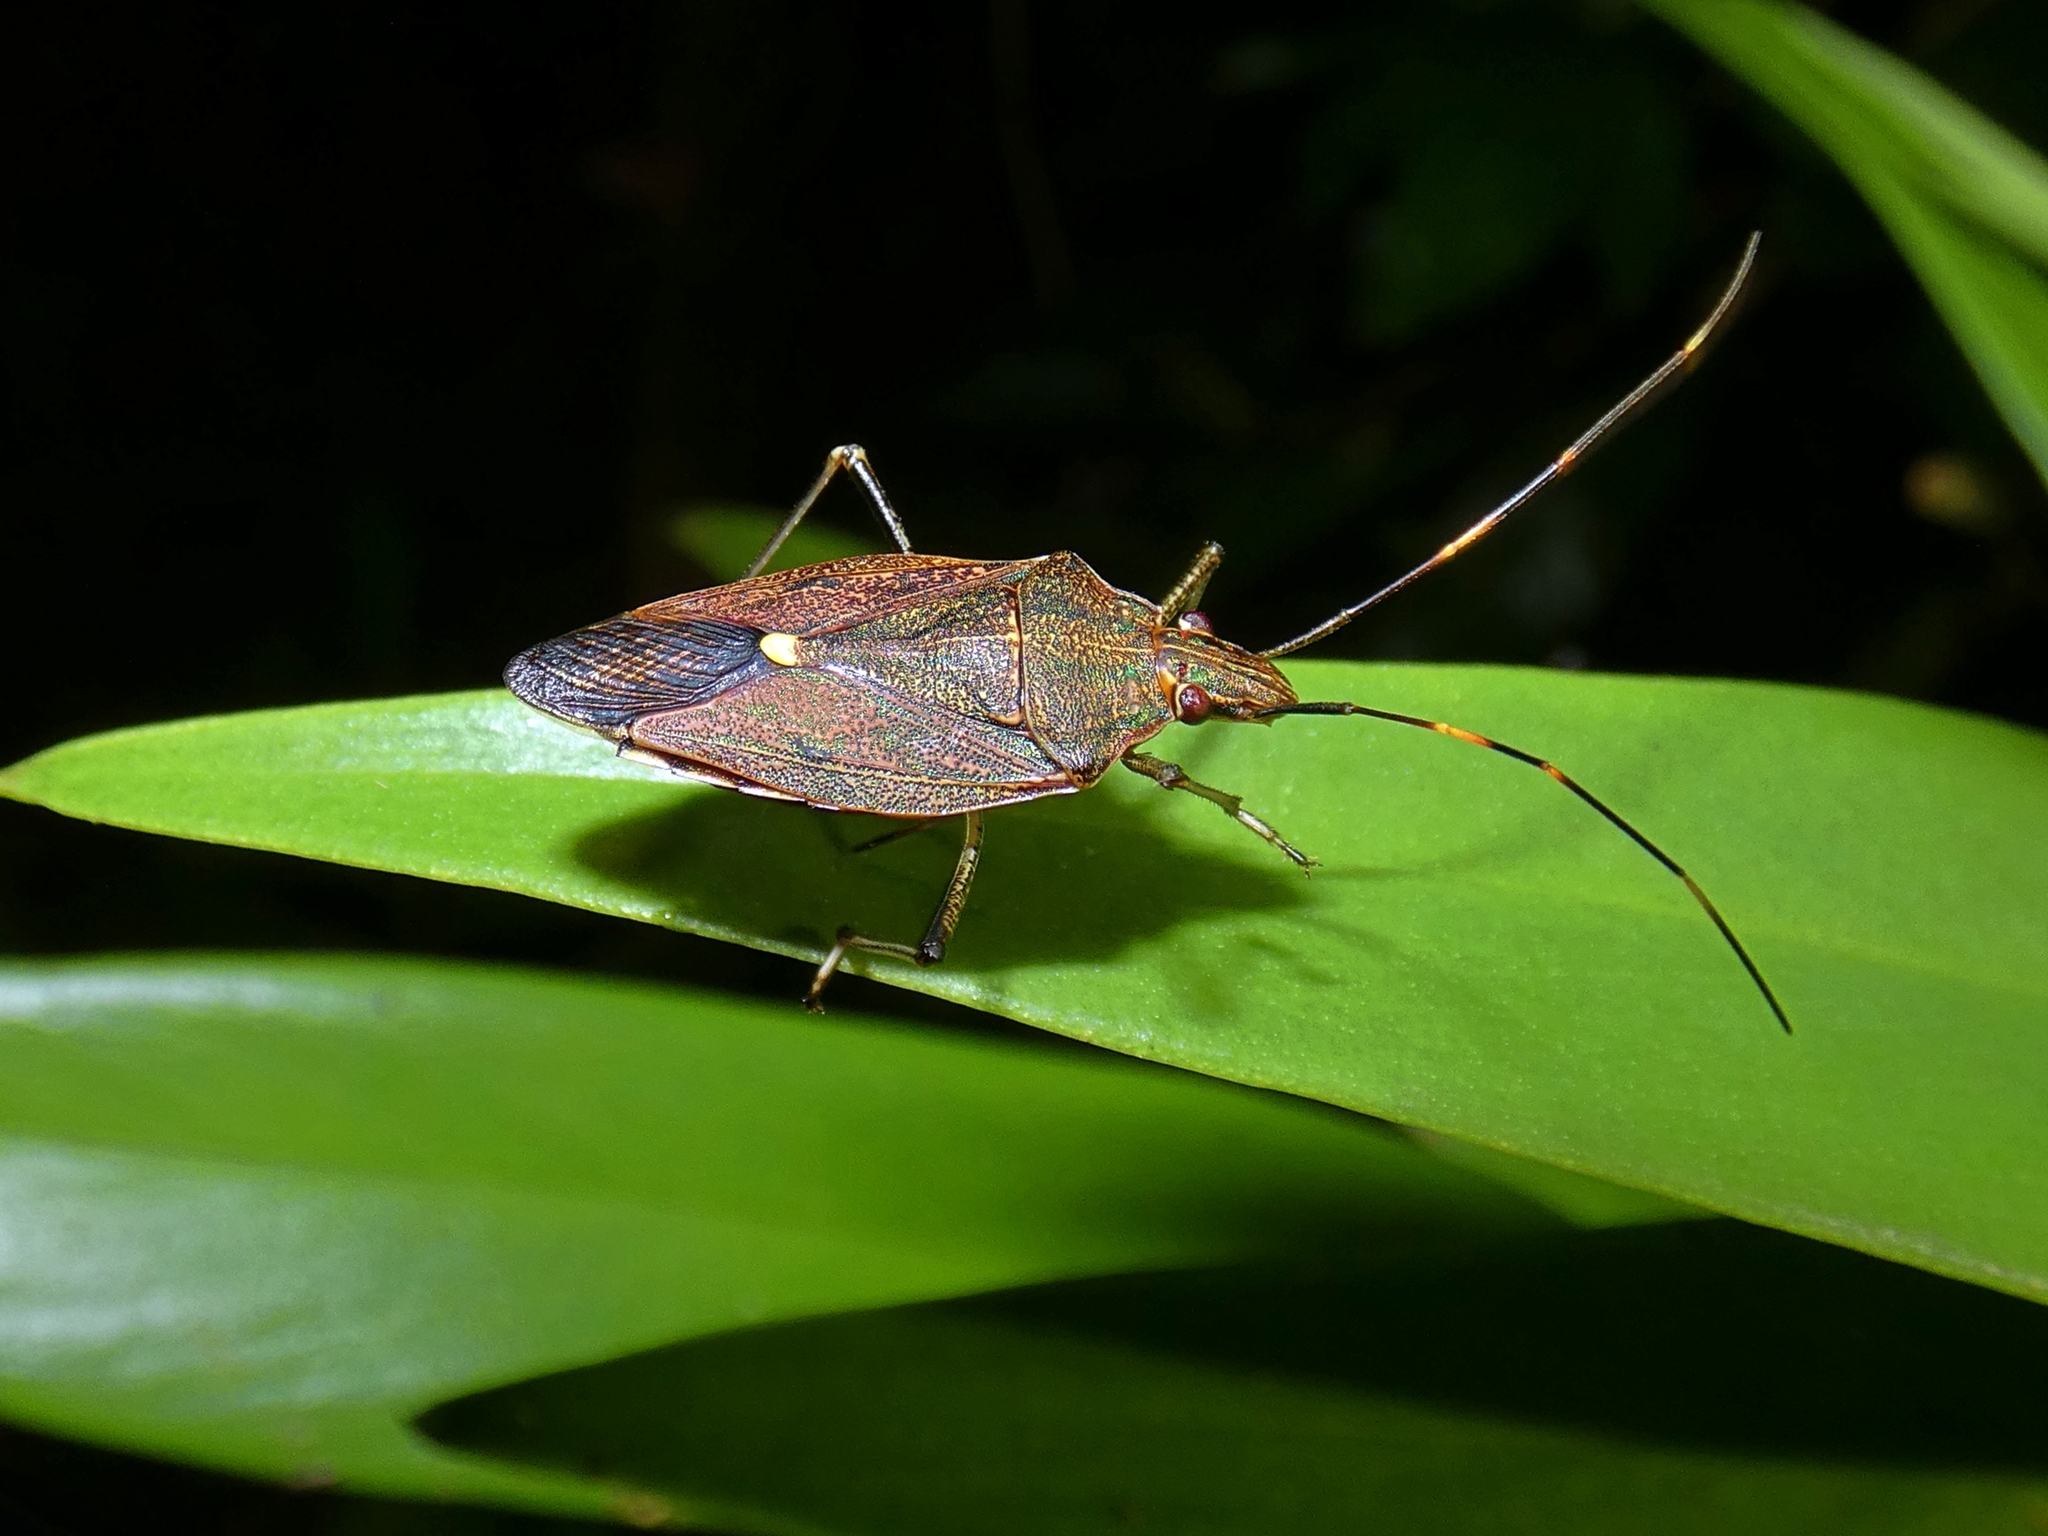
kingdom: Animalia
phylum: Arthropoda
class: Insecta
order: Hemiptera
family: Pentatomidae
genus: Poecilometis
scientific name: Poecilometis
